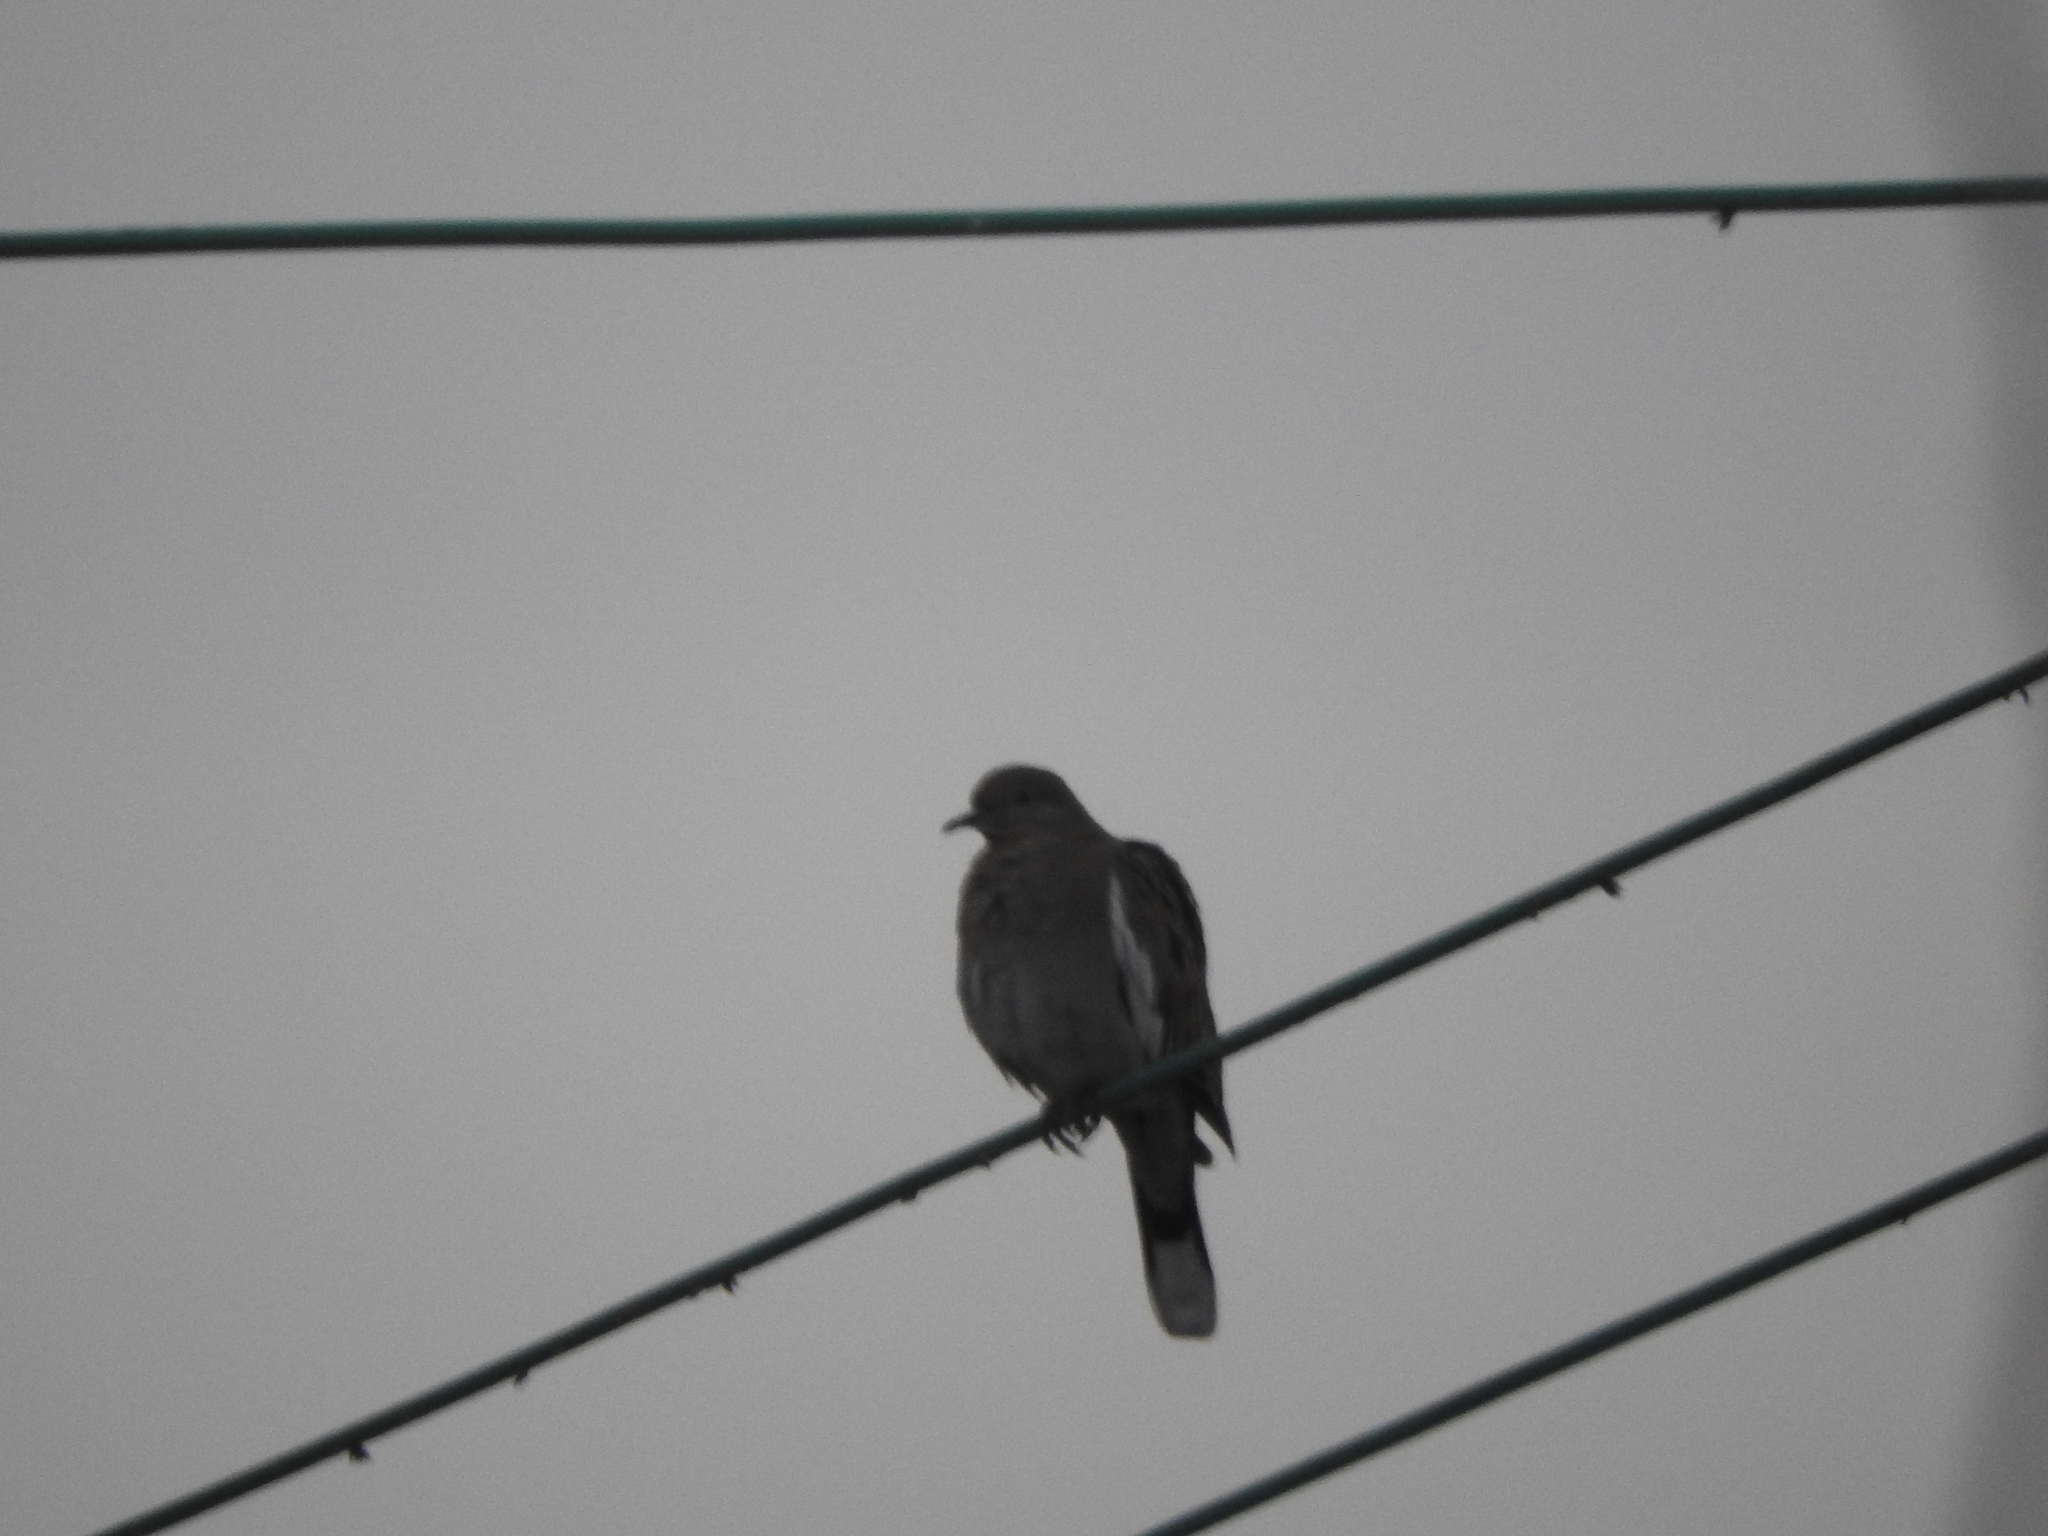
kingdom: Animalia
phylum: Chordata
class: Aves
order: Columbiformes
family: Columbidae
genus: Zenaida
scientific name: Zenaida asiatica
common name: White-winged dove
